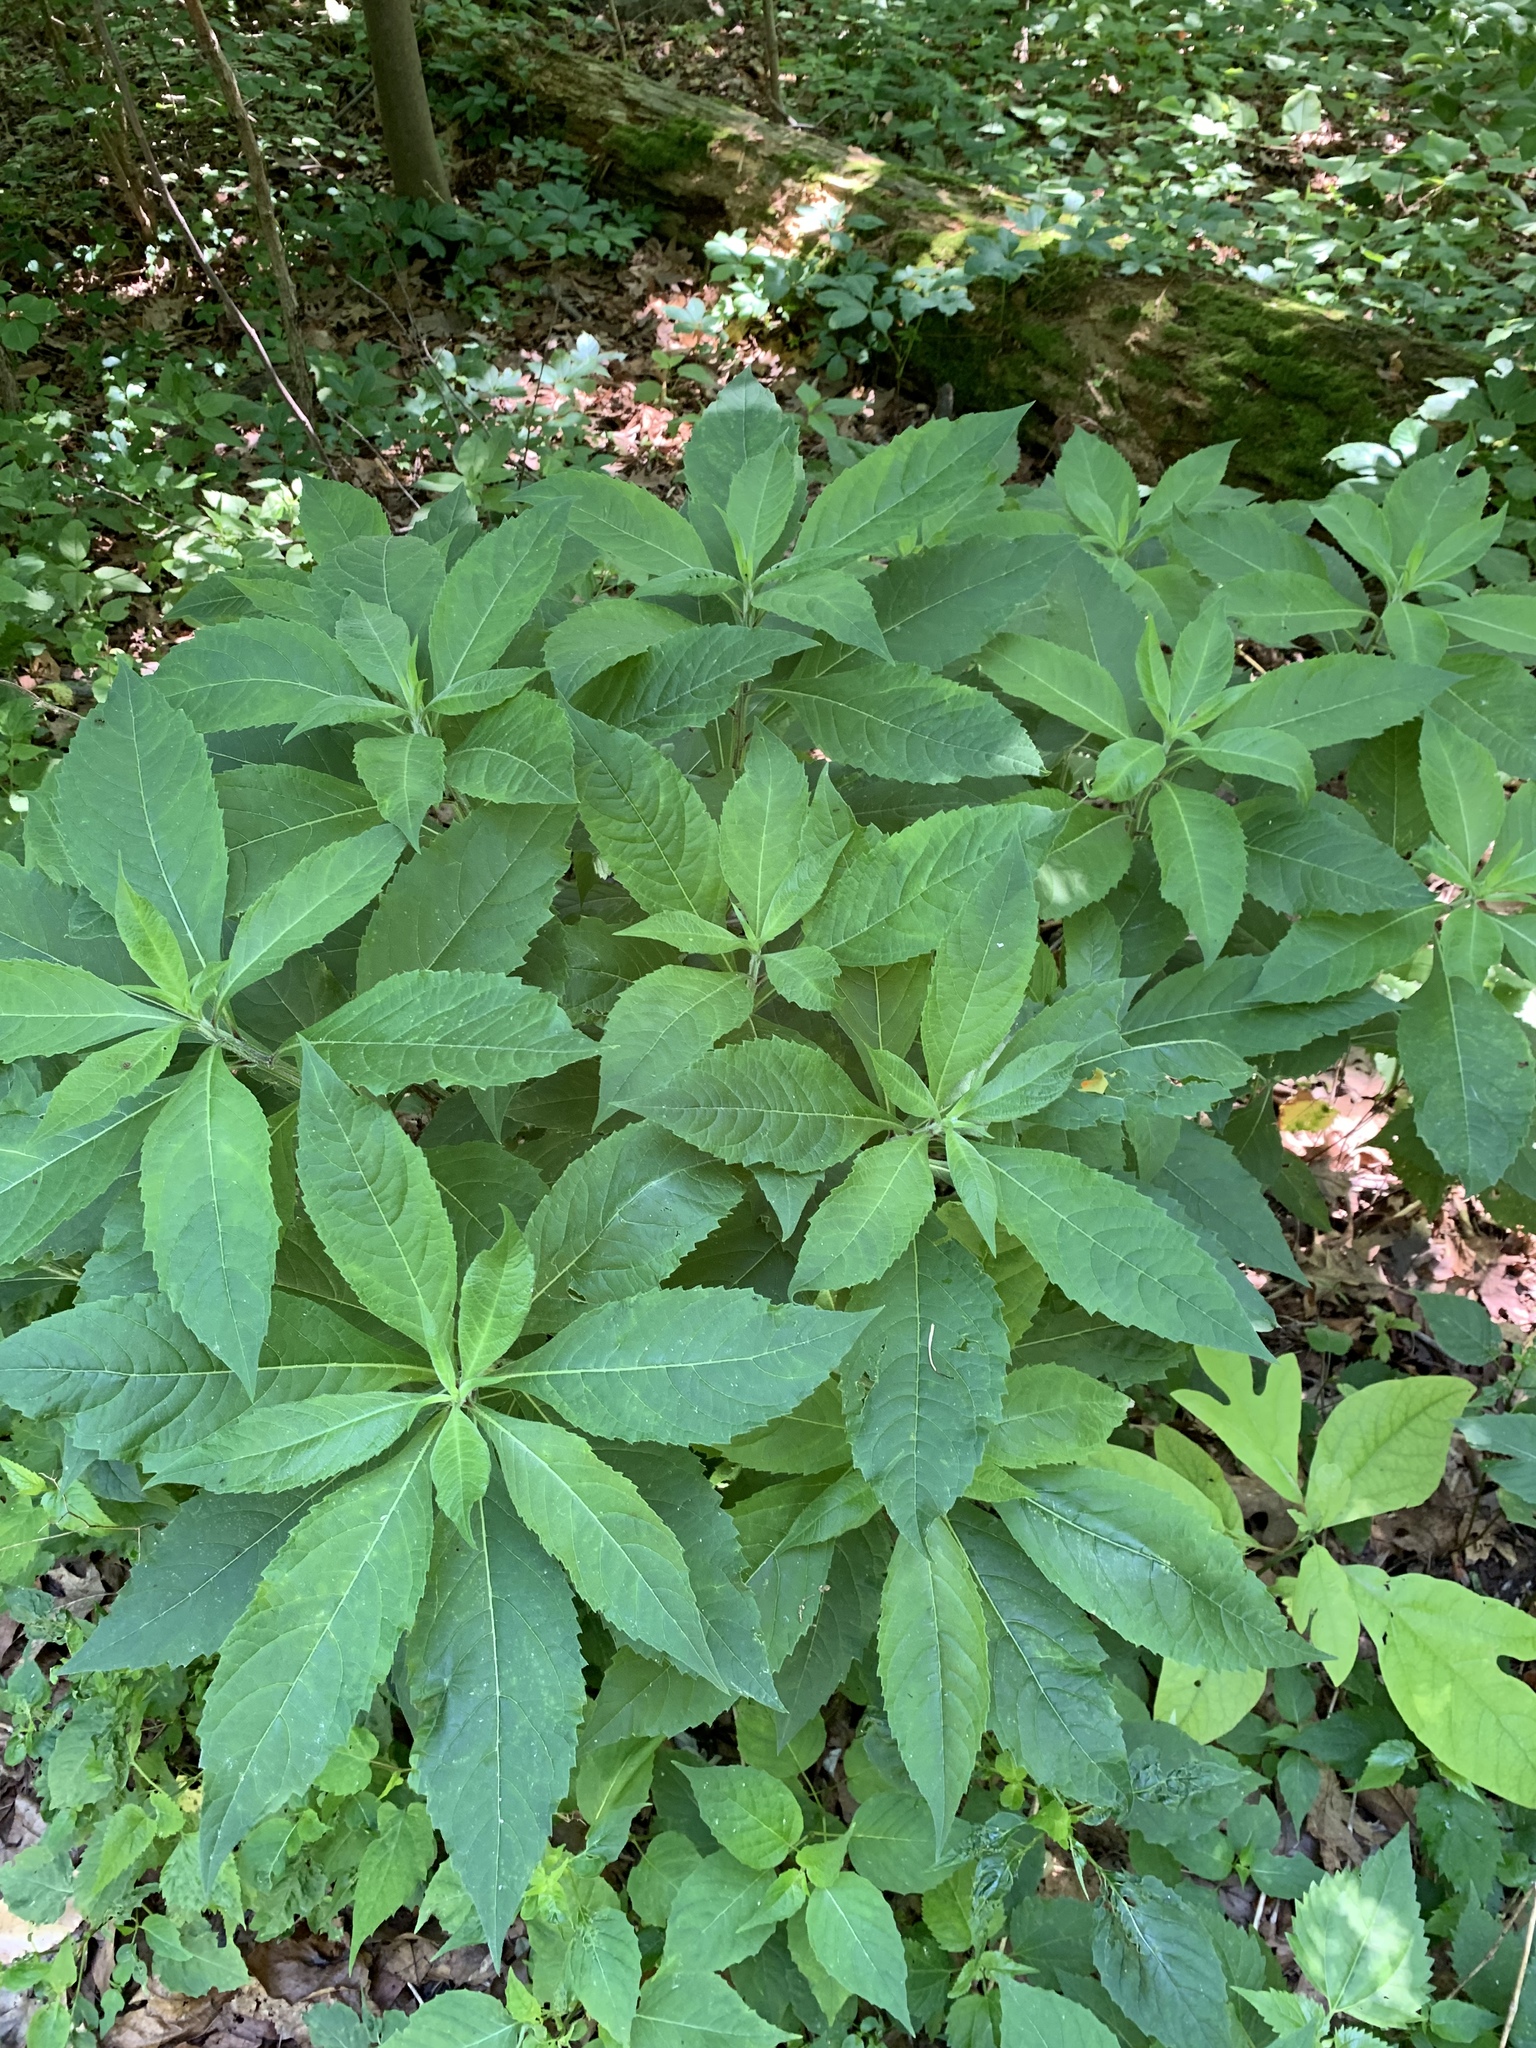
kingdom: Plantae
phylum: Tracheophyta
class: Magnoliopsida
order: Asterales
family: Asteraceae
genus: Verbesina
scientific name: Verbesina alternifolia
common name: Wingstem
